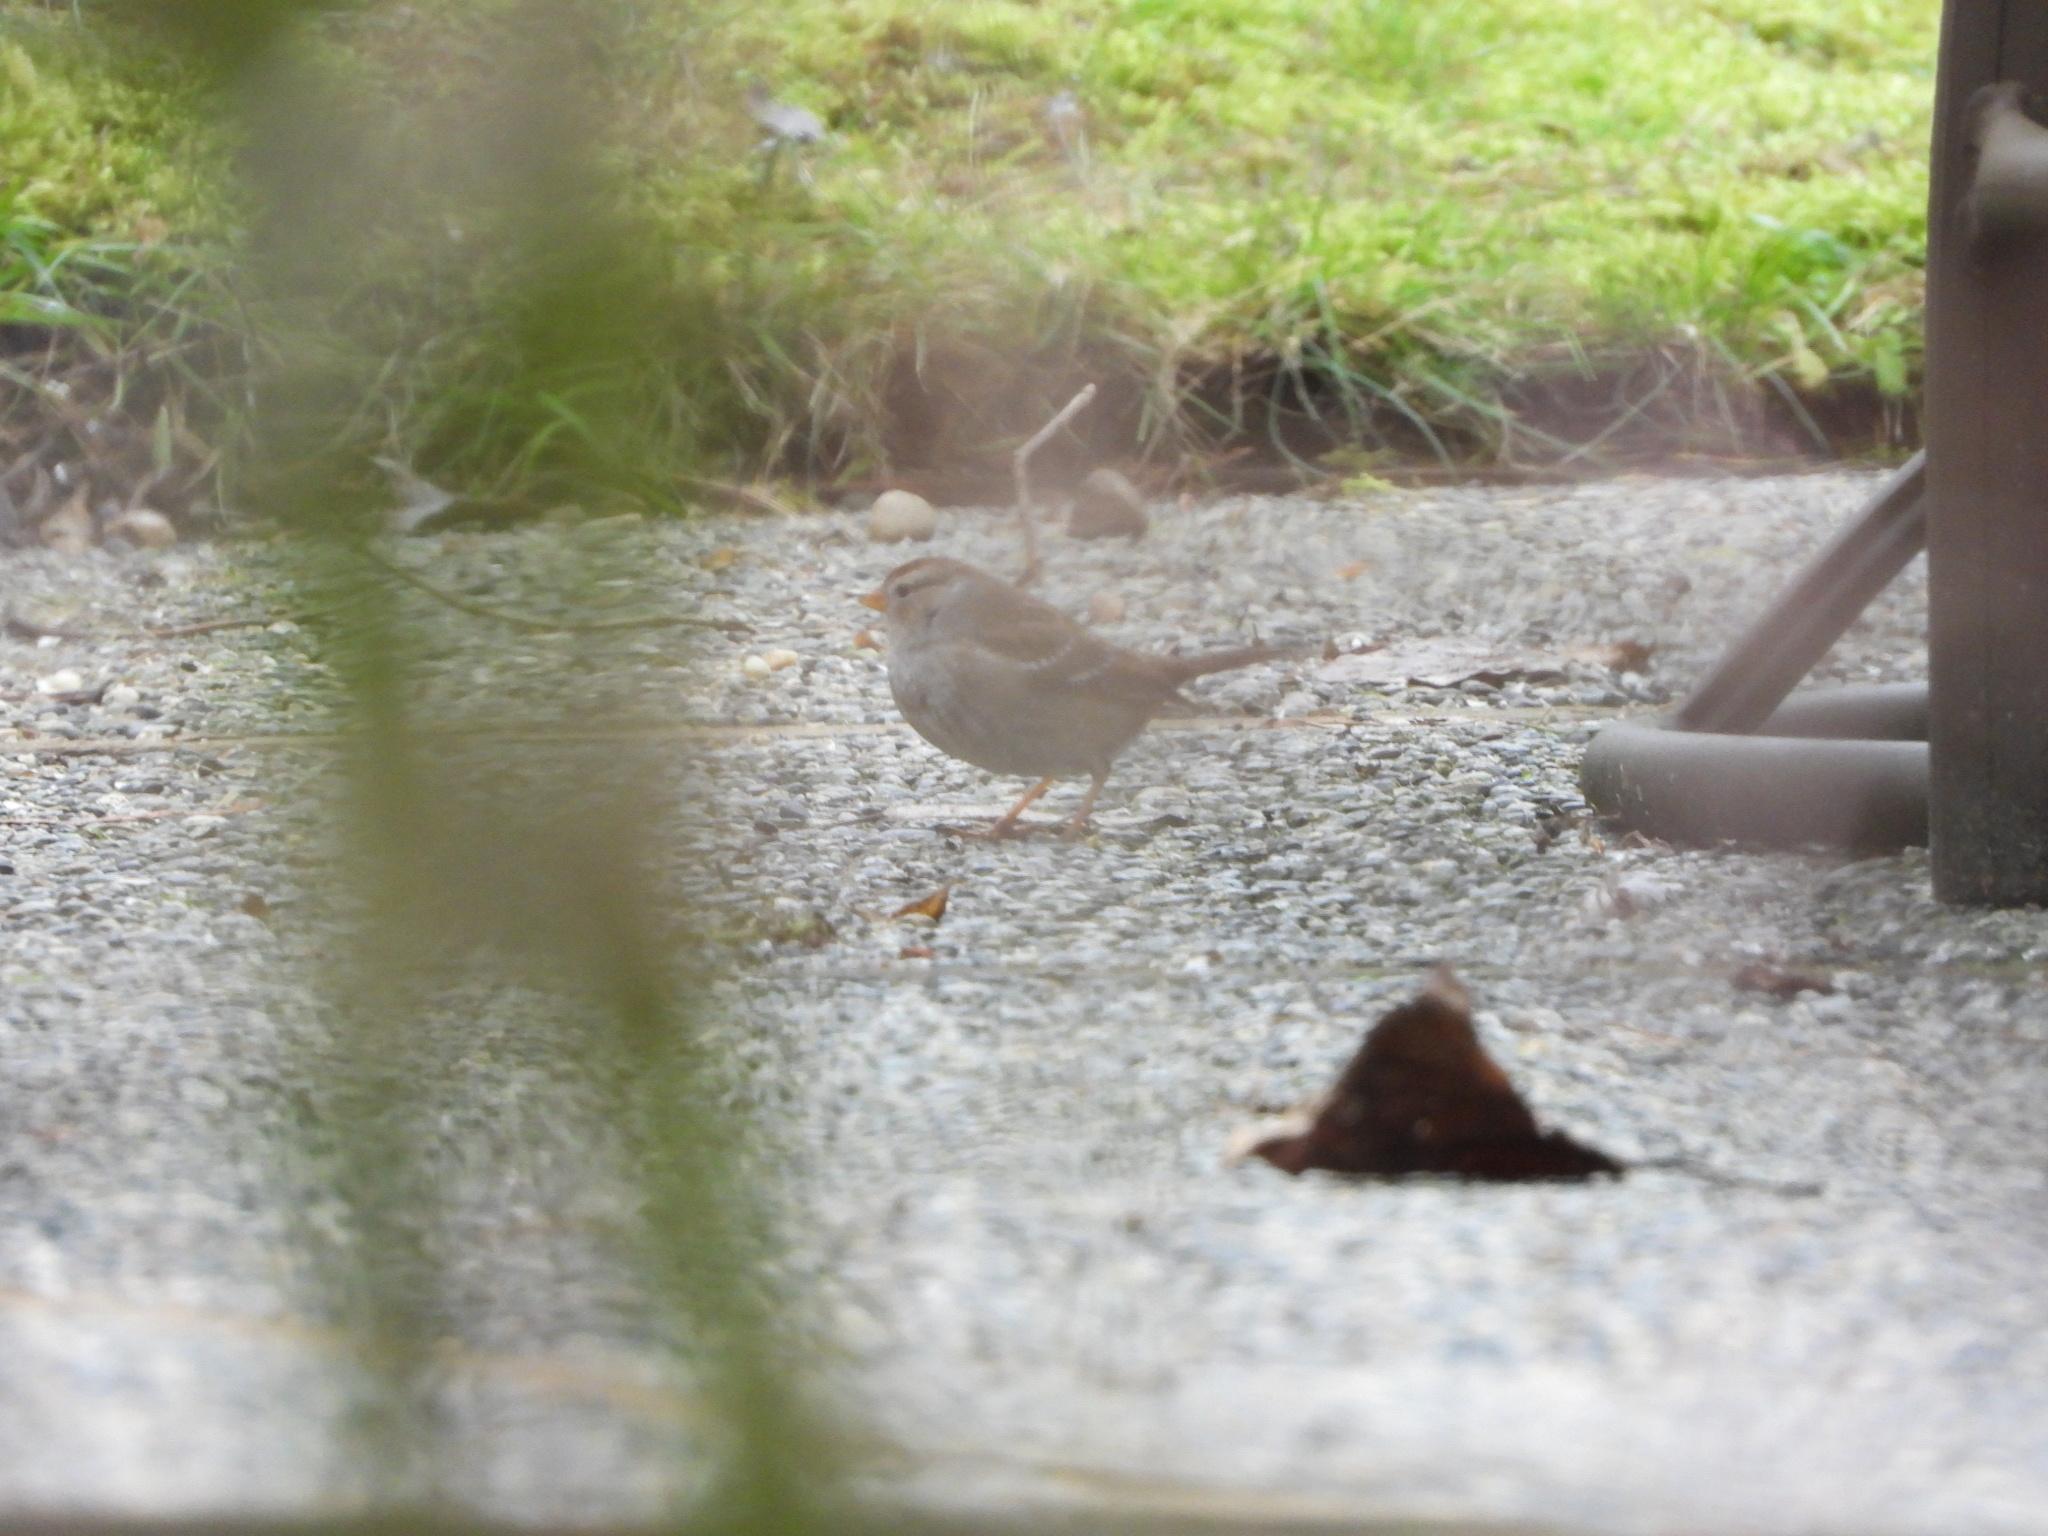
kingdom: Animalia
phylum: Chordata
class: Aves
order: Passeriformes
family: Passerellidae
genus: Zonotrichia
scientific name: Zonotrichia leucophrys
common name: White-crowned sparrow
